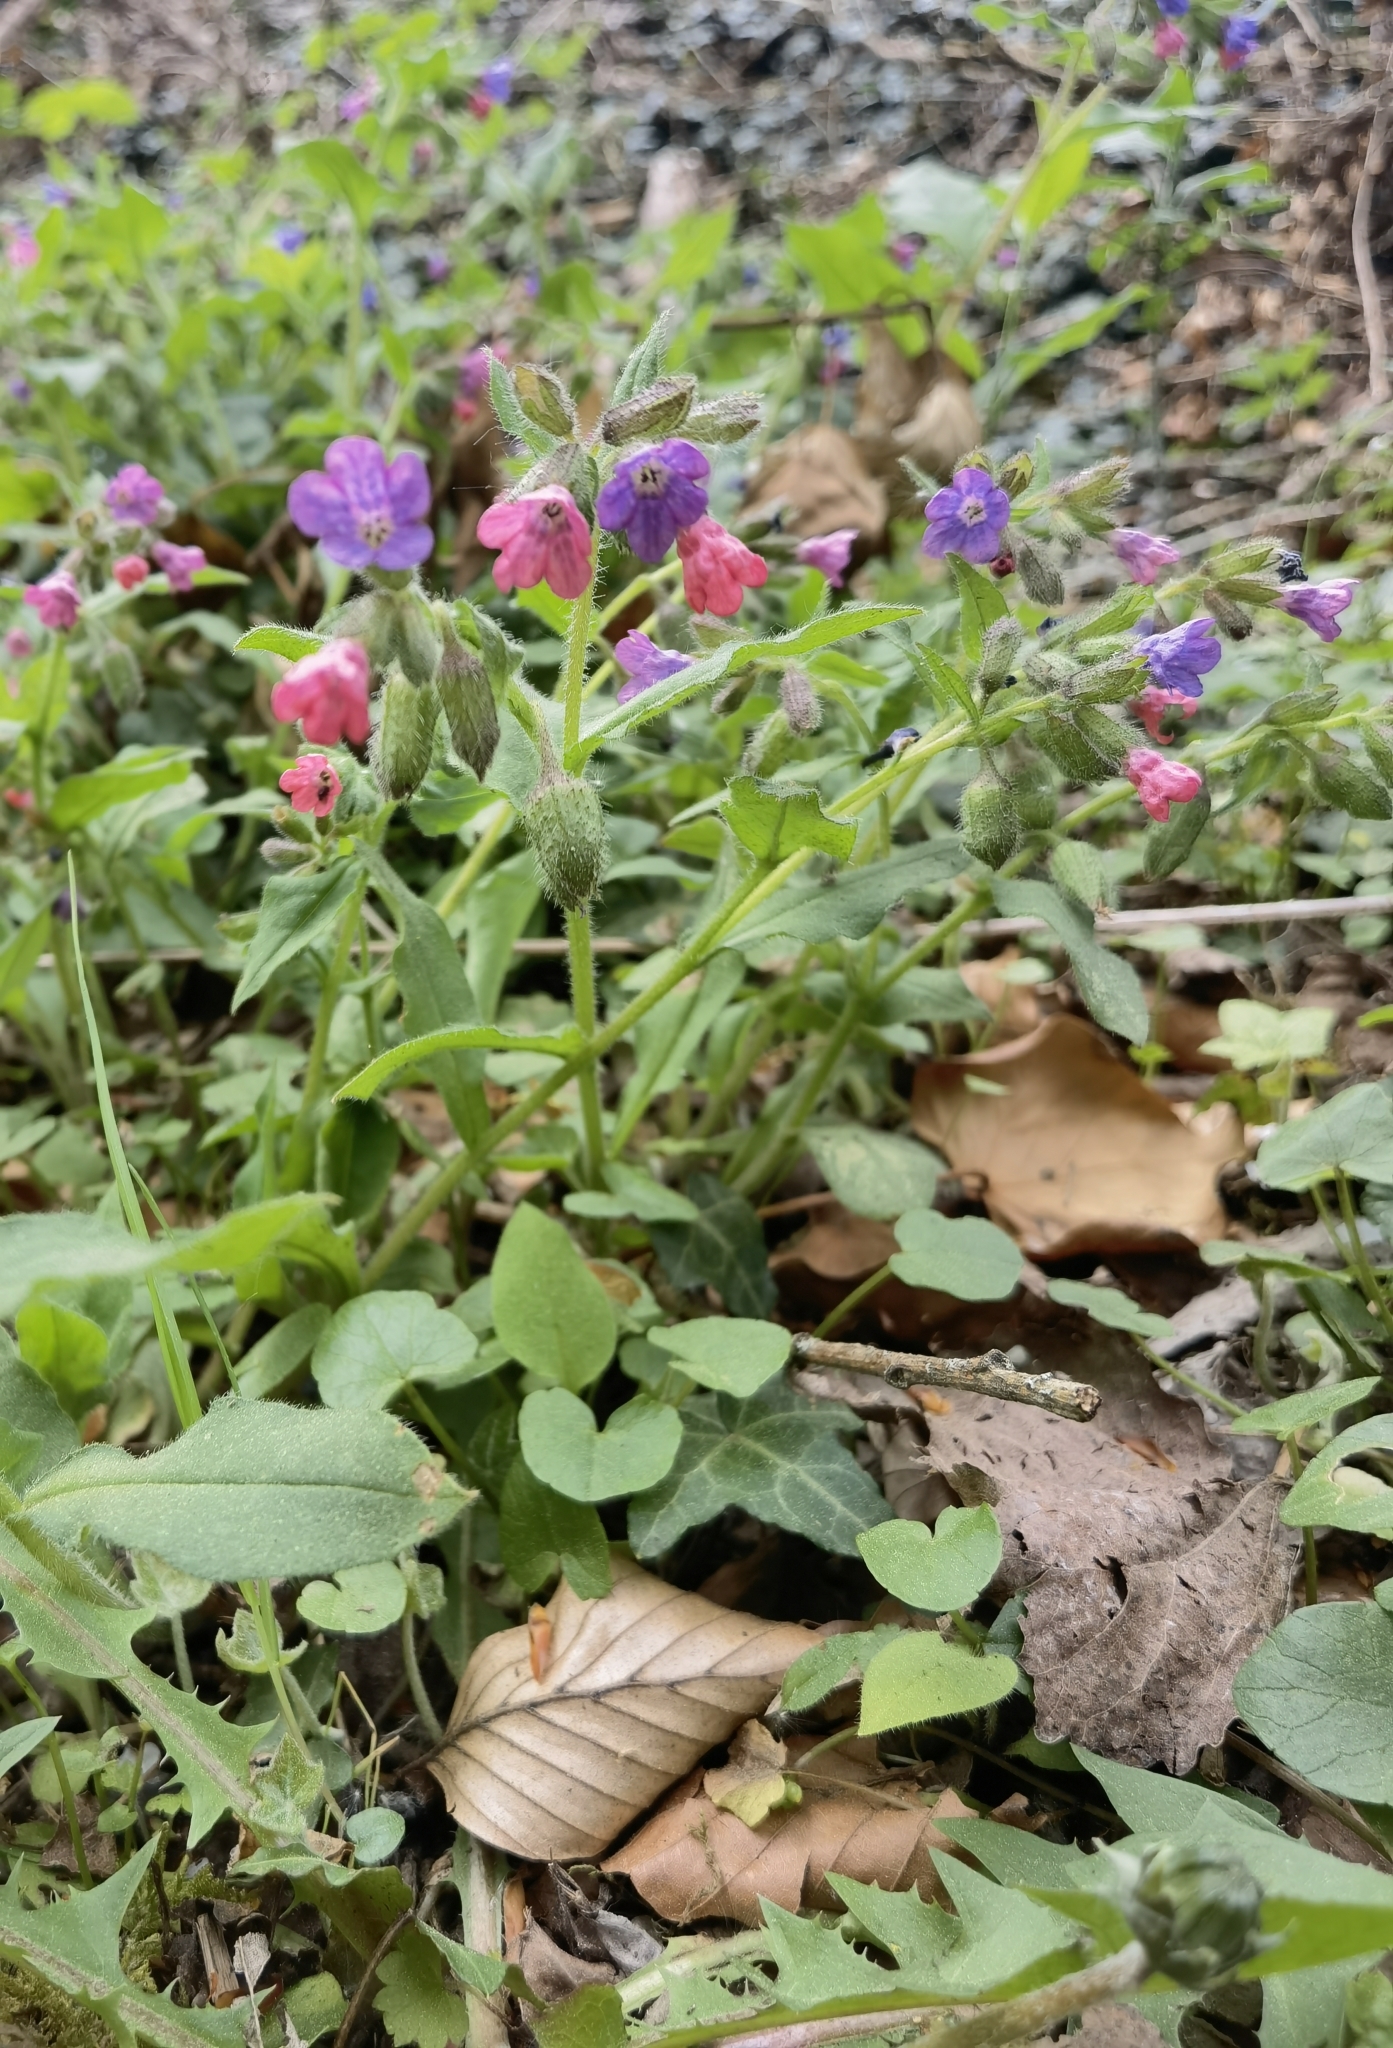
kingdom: Plantae
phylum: Tracheophyta
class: Magnoliopsida
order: Boraginales
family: Boraginaceae
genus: Pulmonaria
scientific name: Pulmonaria obscura
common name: Suffolk lungwort
